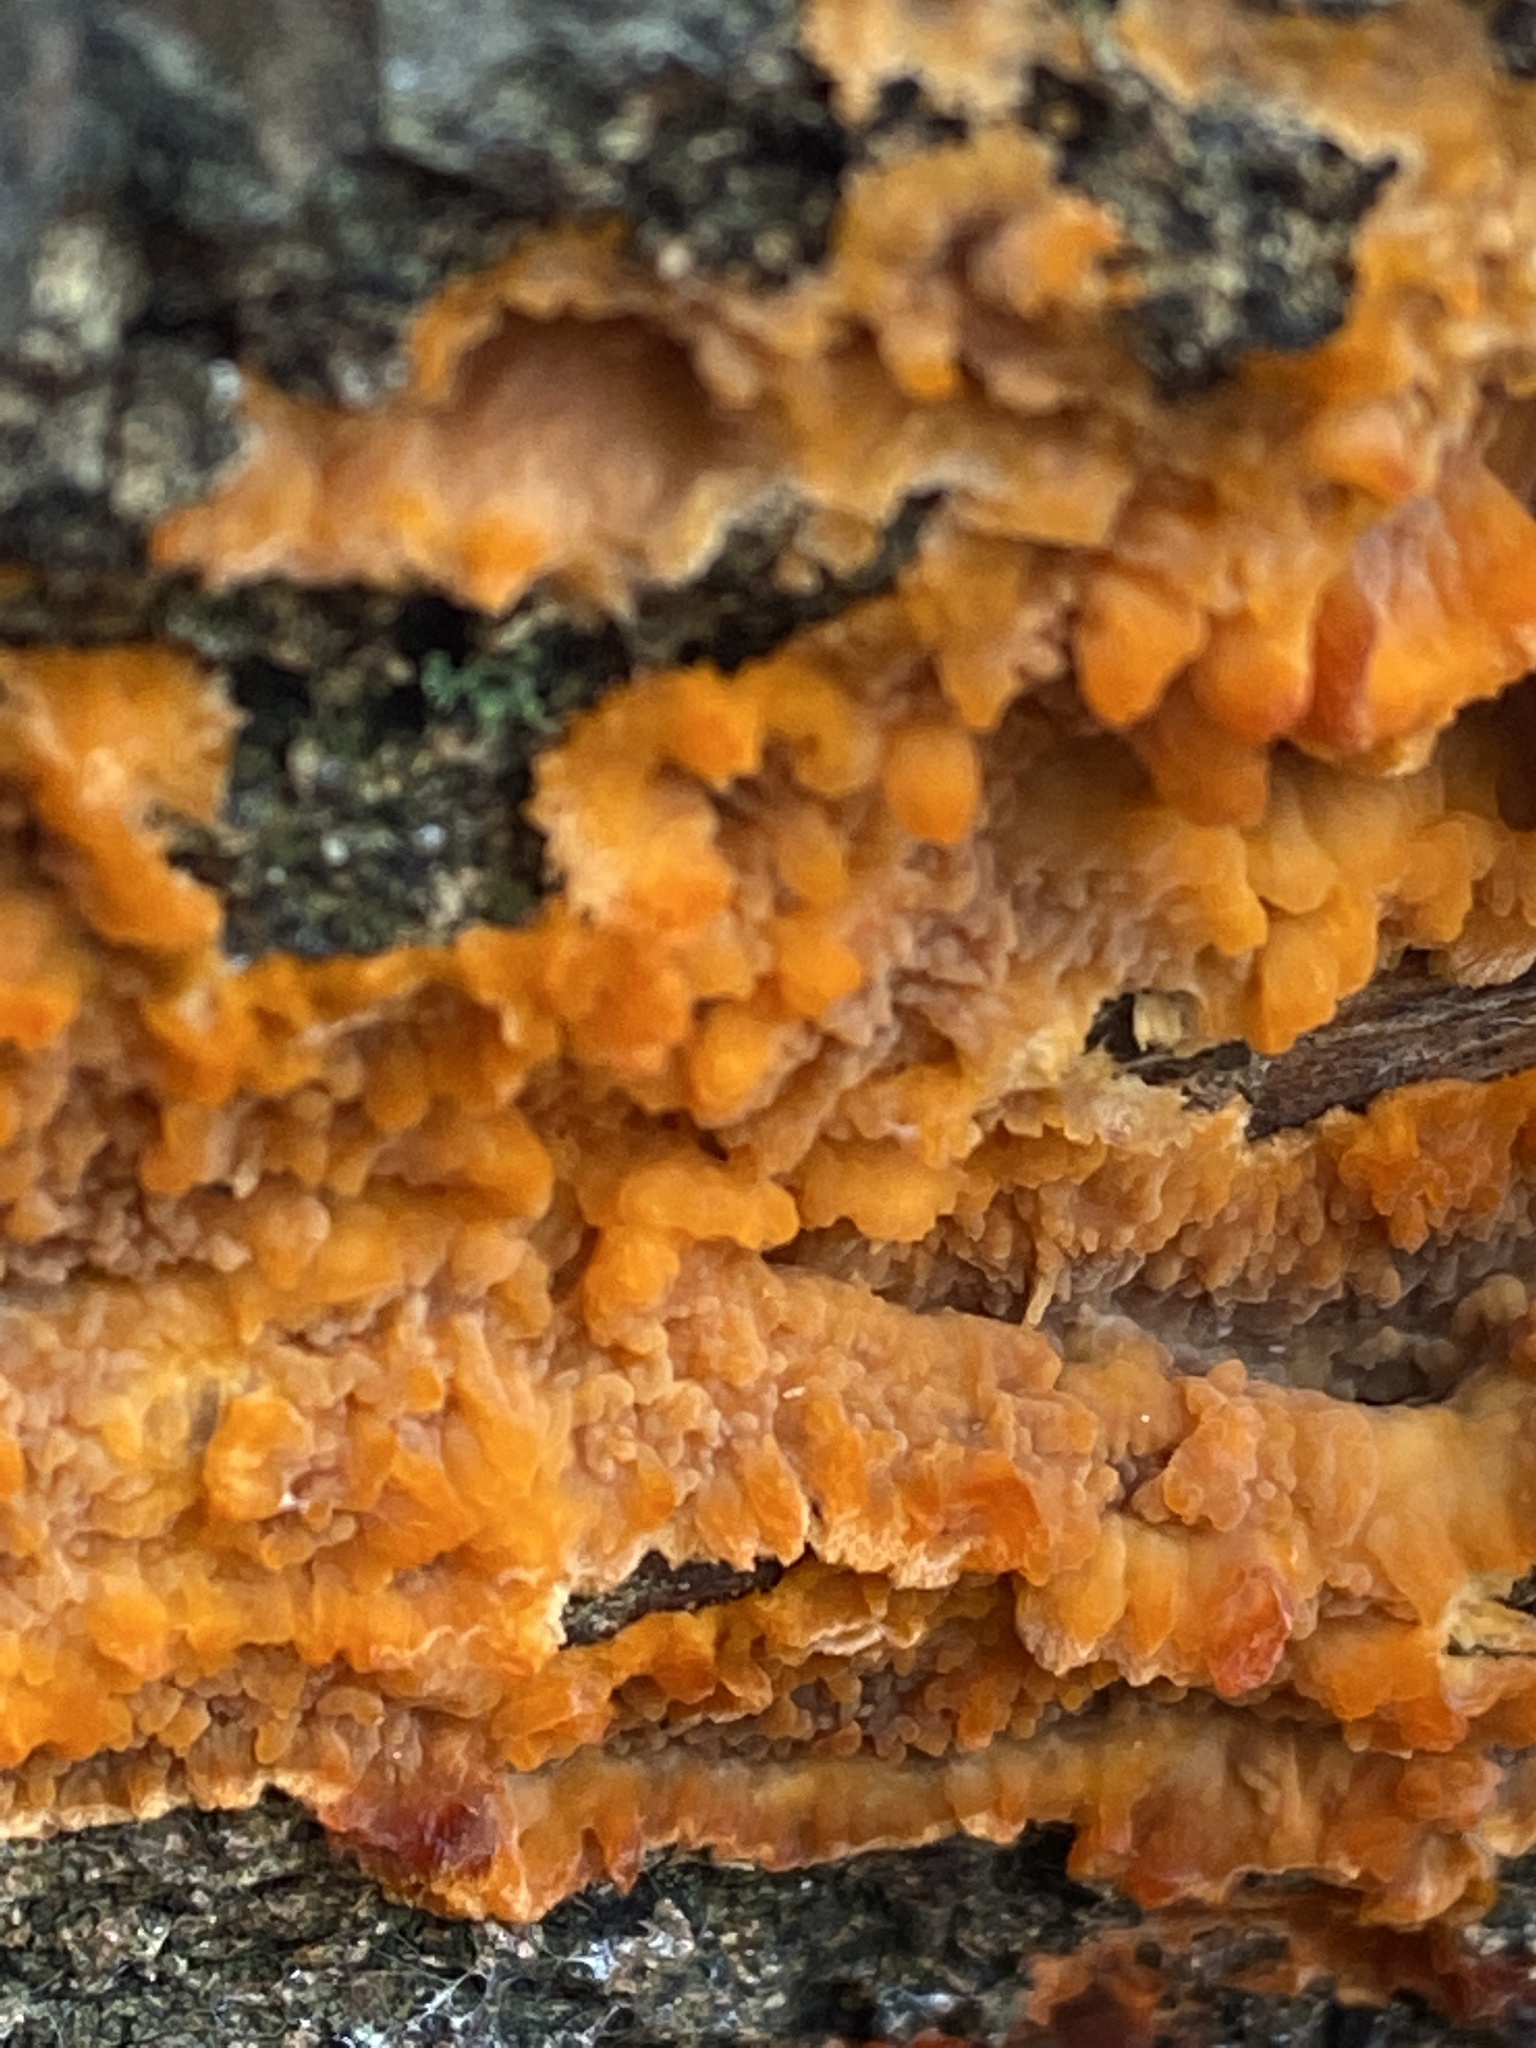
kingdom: Fungi
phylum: Basidiomycota
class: Agaricomycetes
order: Polyporales
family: Meruliaceae
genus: Phlebia
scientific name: Phlebia radiata
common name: Wrinkled crust
